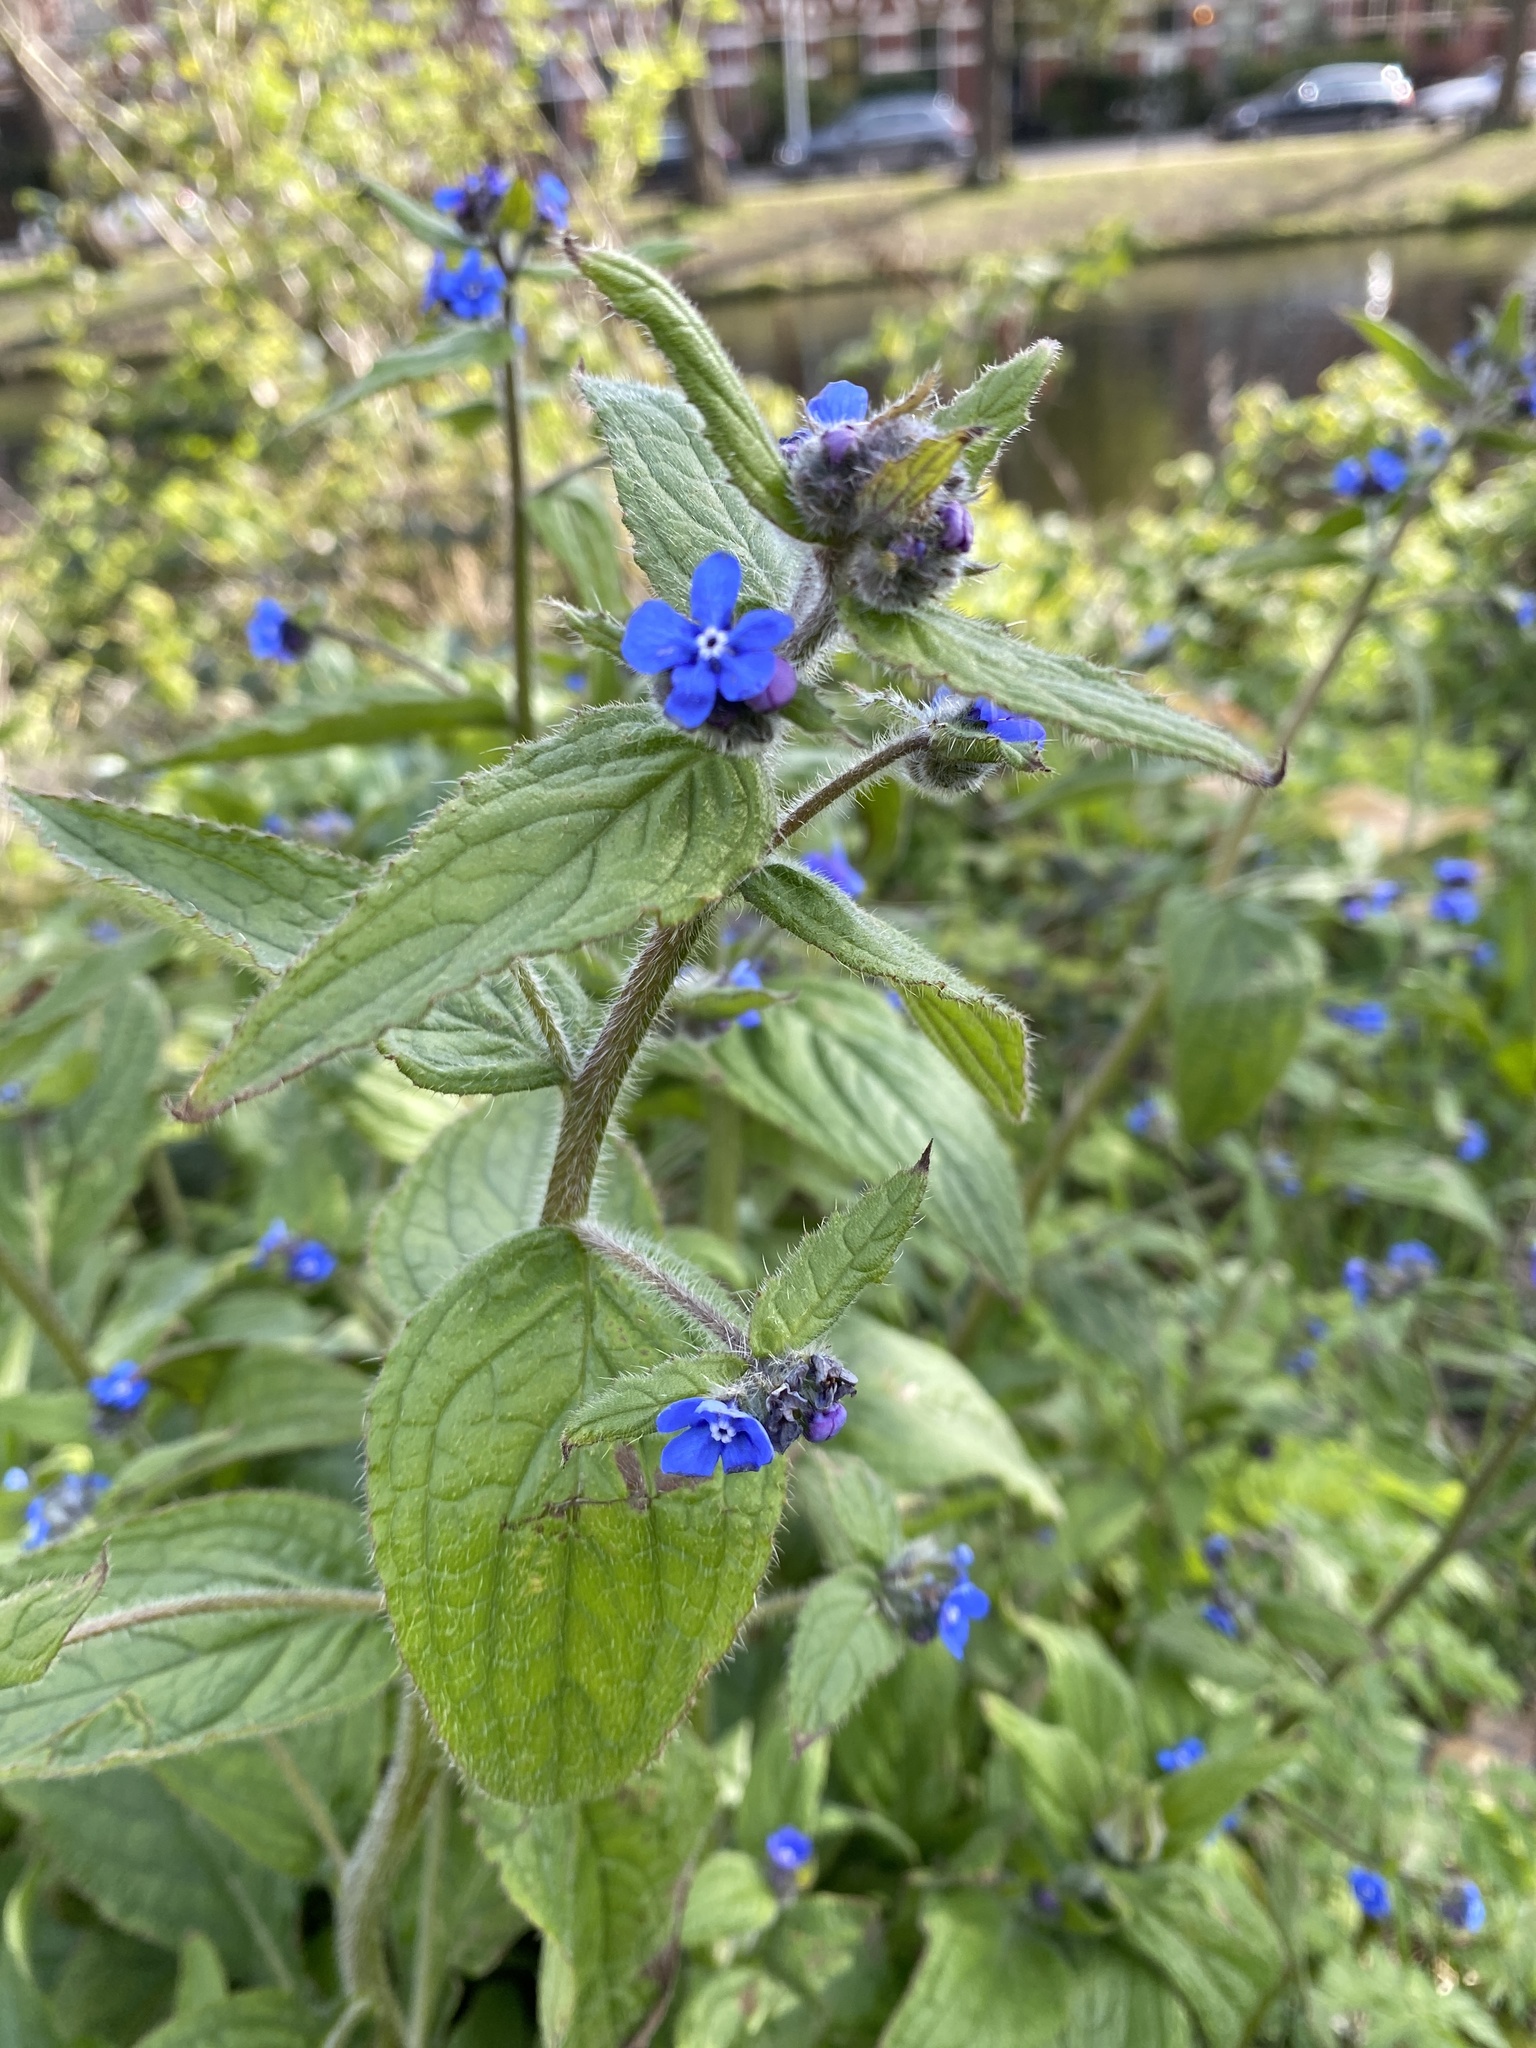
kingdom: Plantae
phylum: Tracheophyta
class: Magnoliopsida
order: Boraginales
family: Boraginaceae
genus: Pentaglottis
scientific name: Pentaglottis sempervirens
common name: Green alkanet
